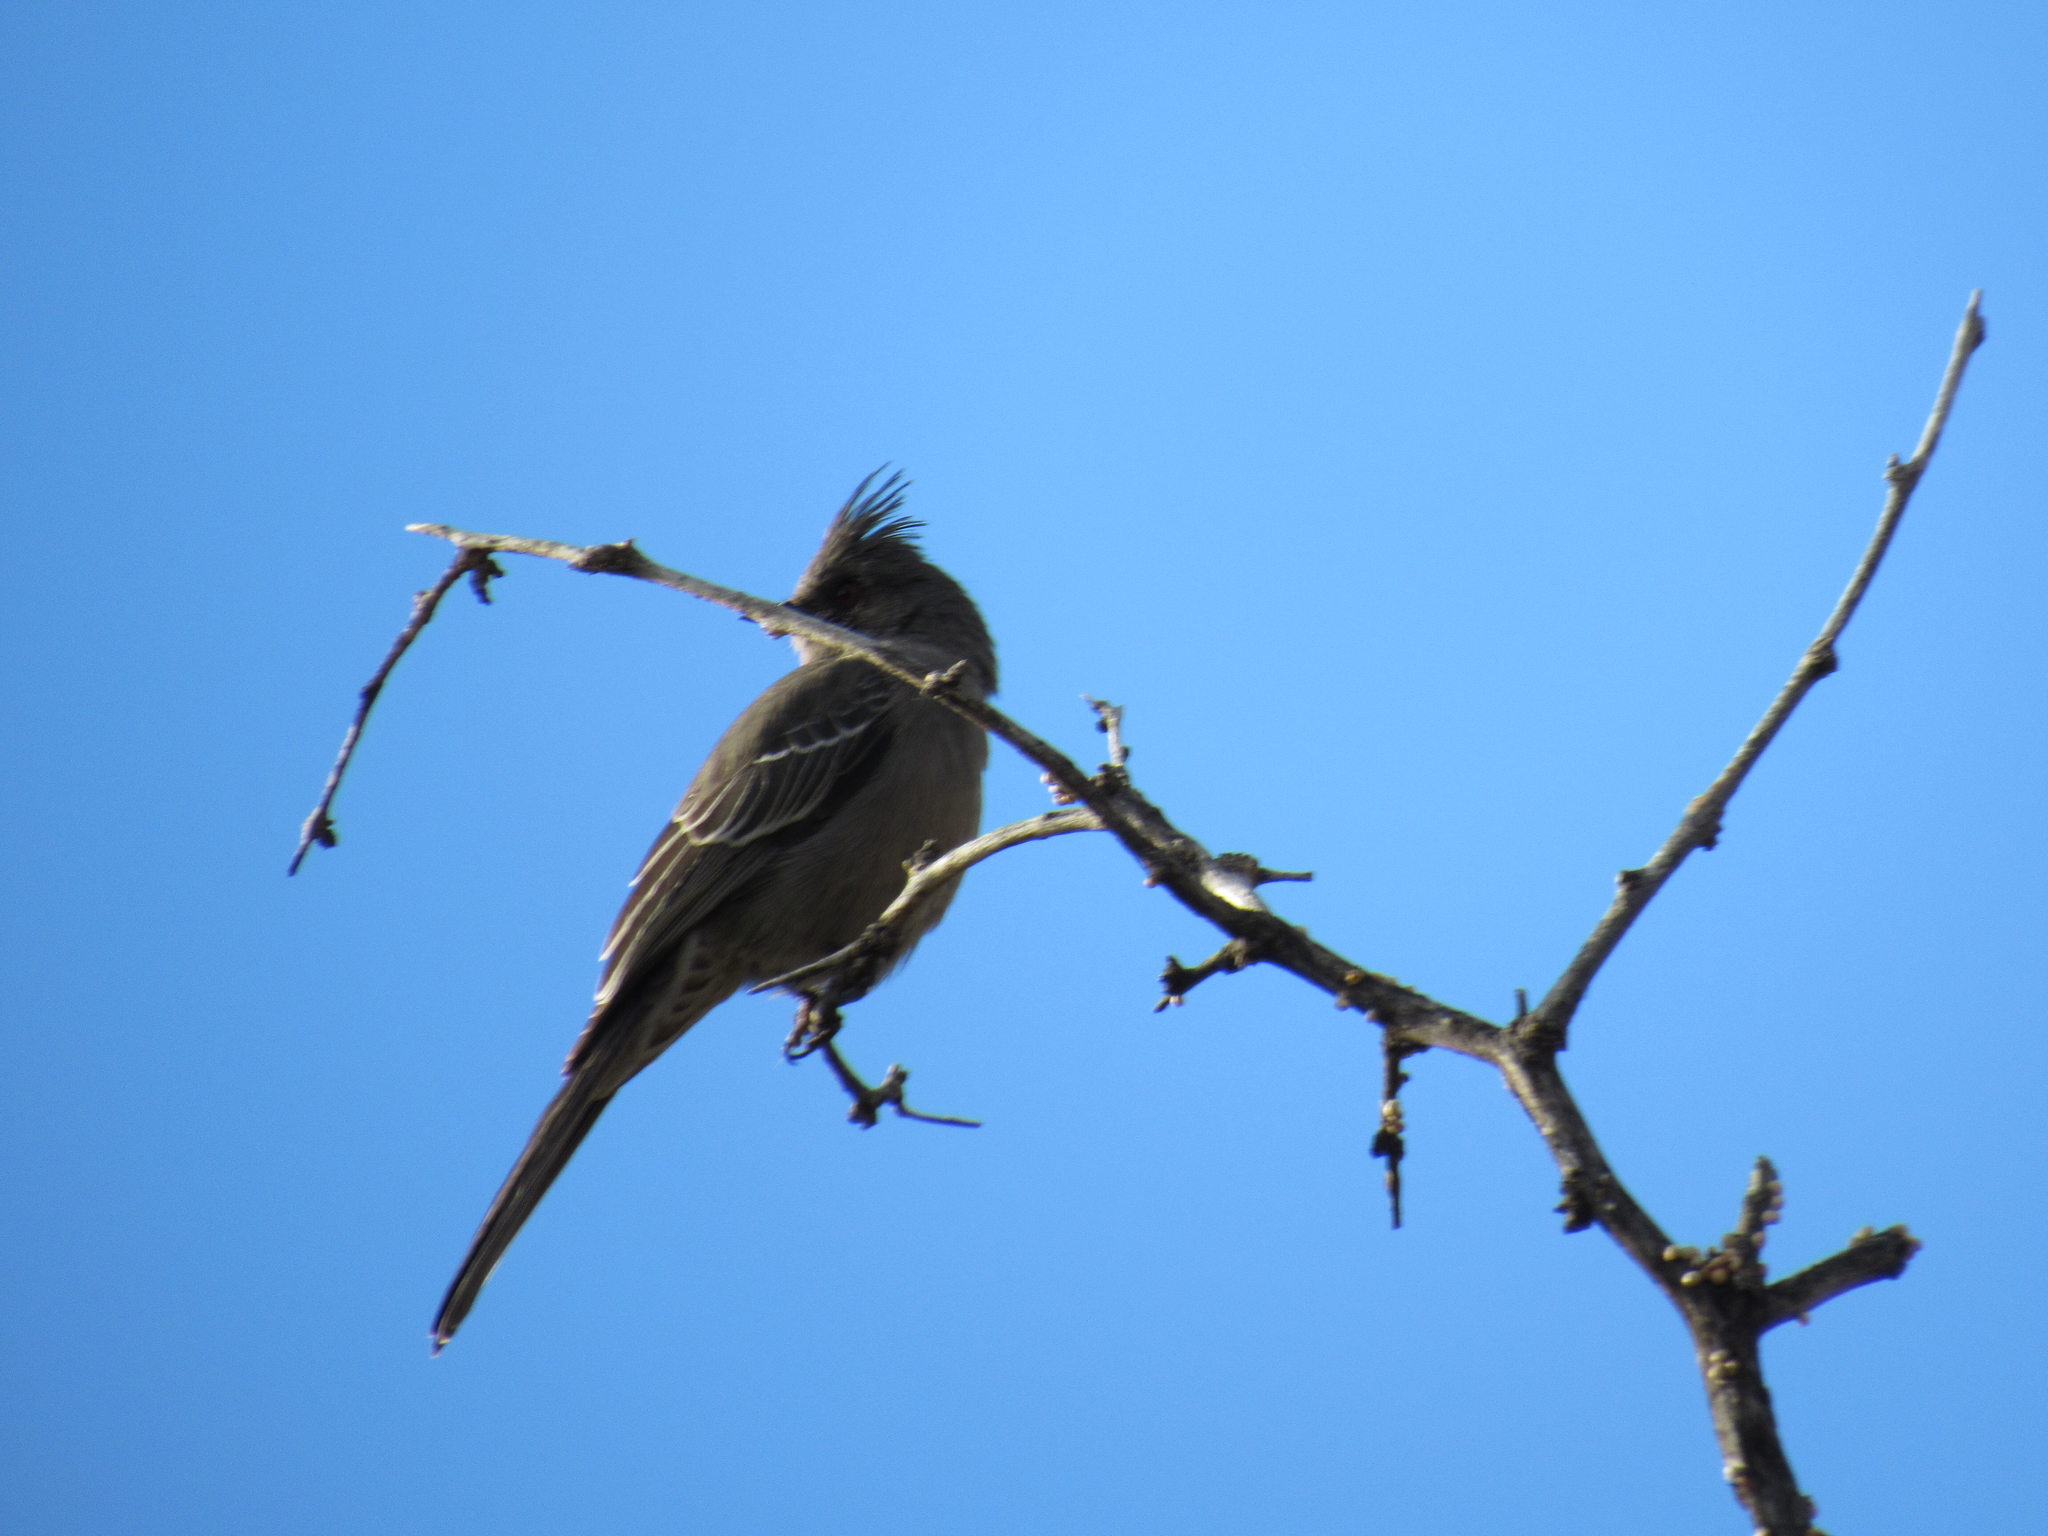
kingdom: Animalia
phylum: Chordata
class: Aves
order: Passeriformes
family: Ptilogonatidae
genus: Phainopepla
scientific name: Phainopepla nitens
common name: Phainopepla
